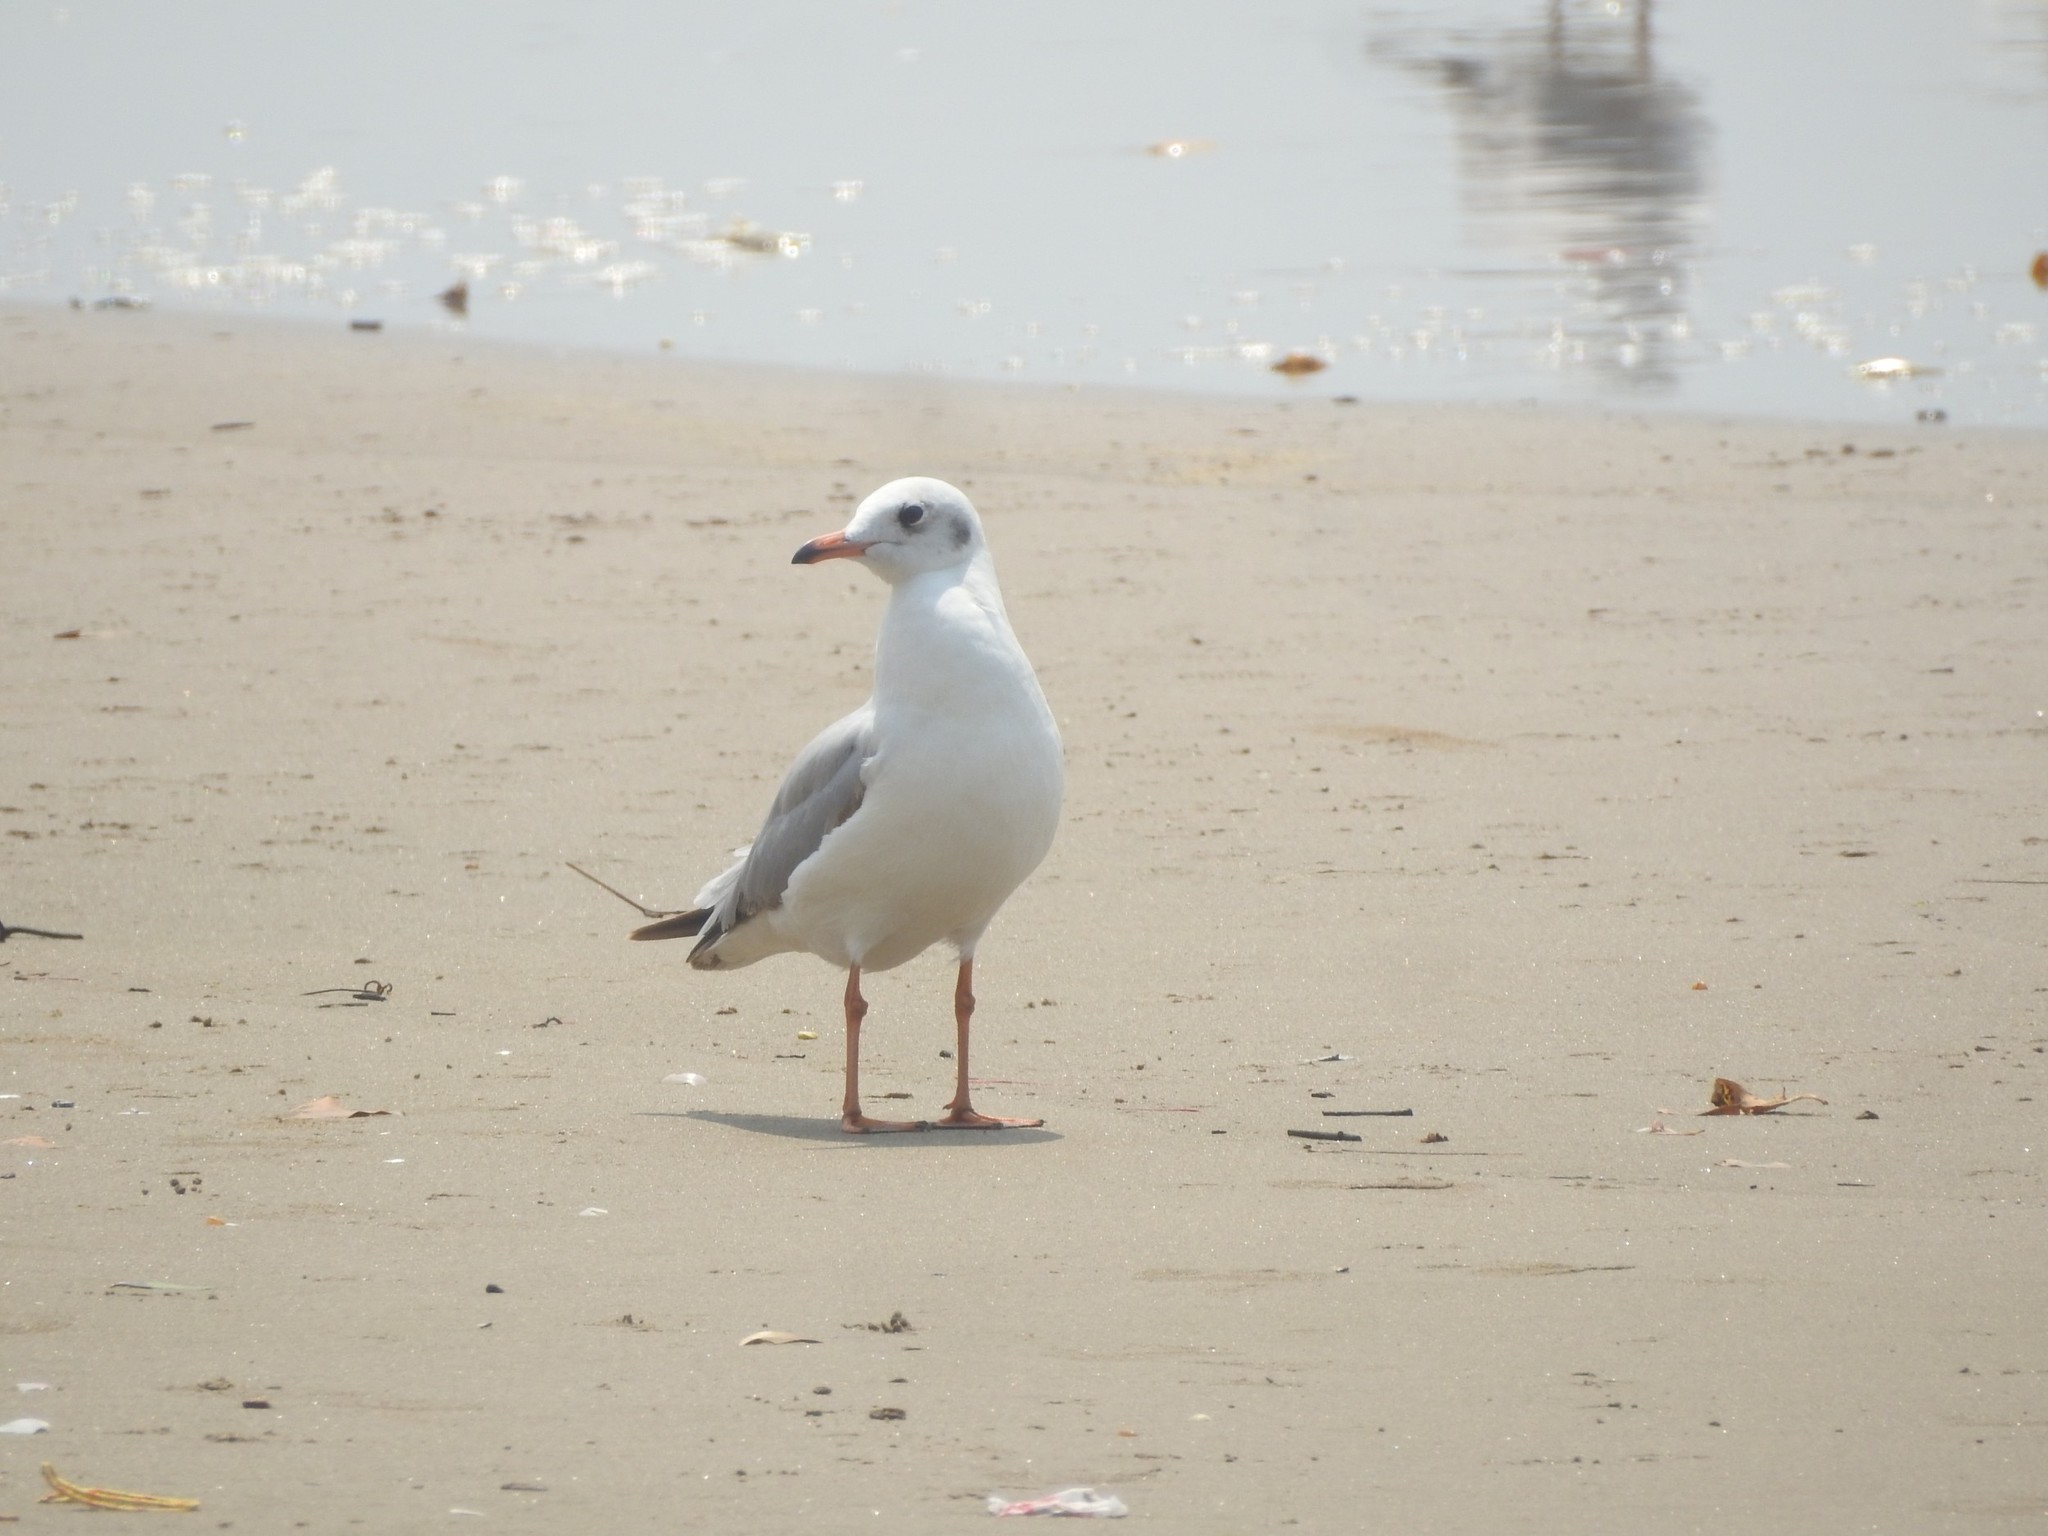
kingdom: Animalia
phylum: Chordata
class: Aves
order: Charadriiformes
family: Laridae
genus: Chroicocephalus
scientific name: Chroicocephalus ridibundus
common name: Black-headed gull
